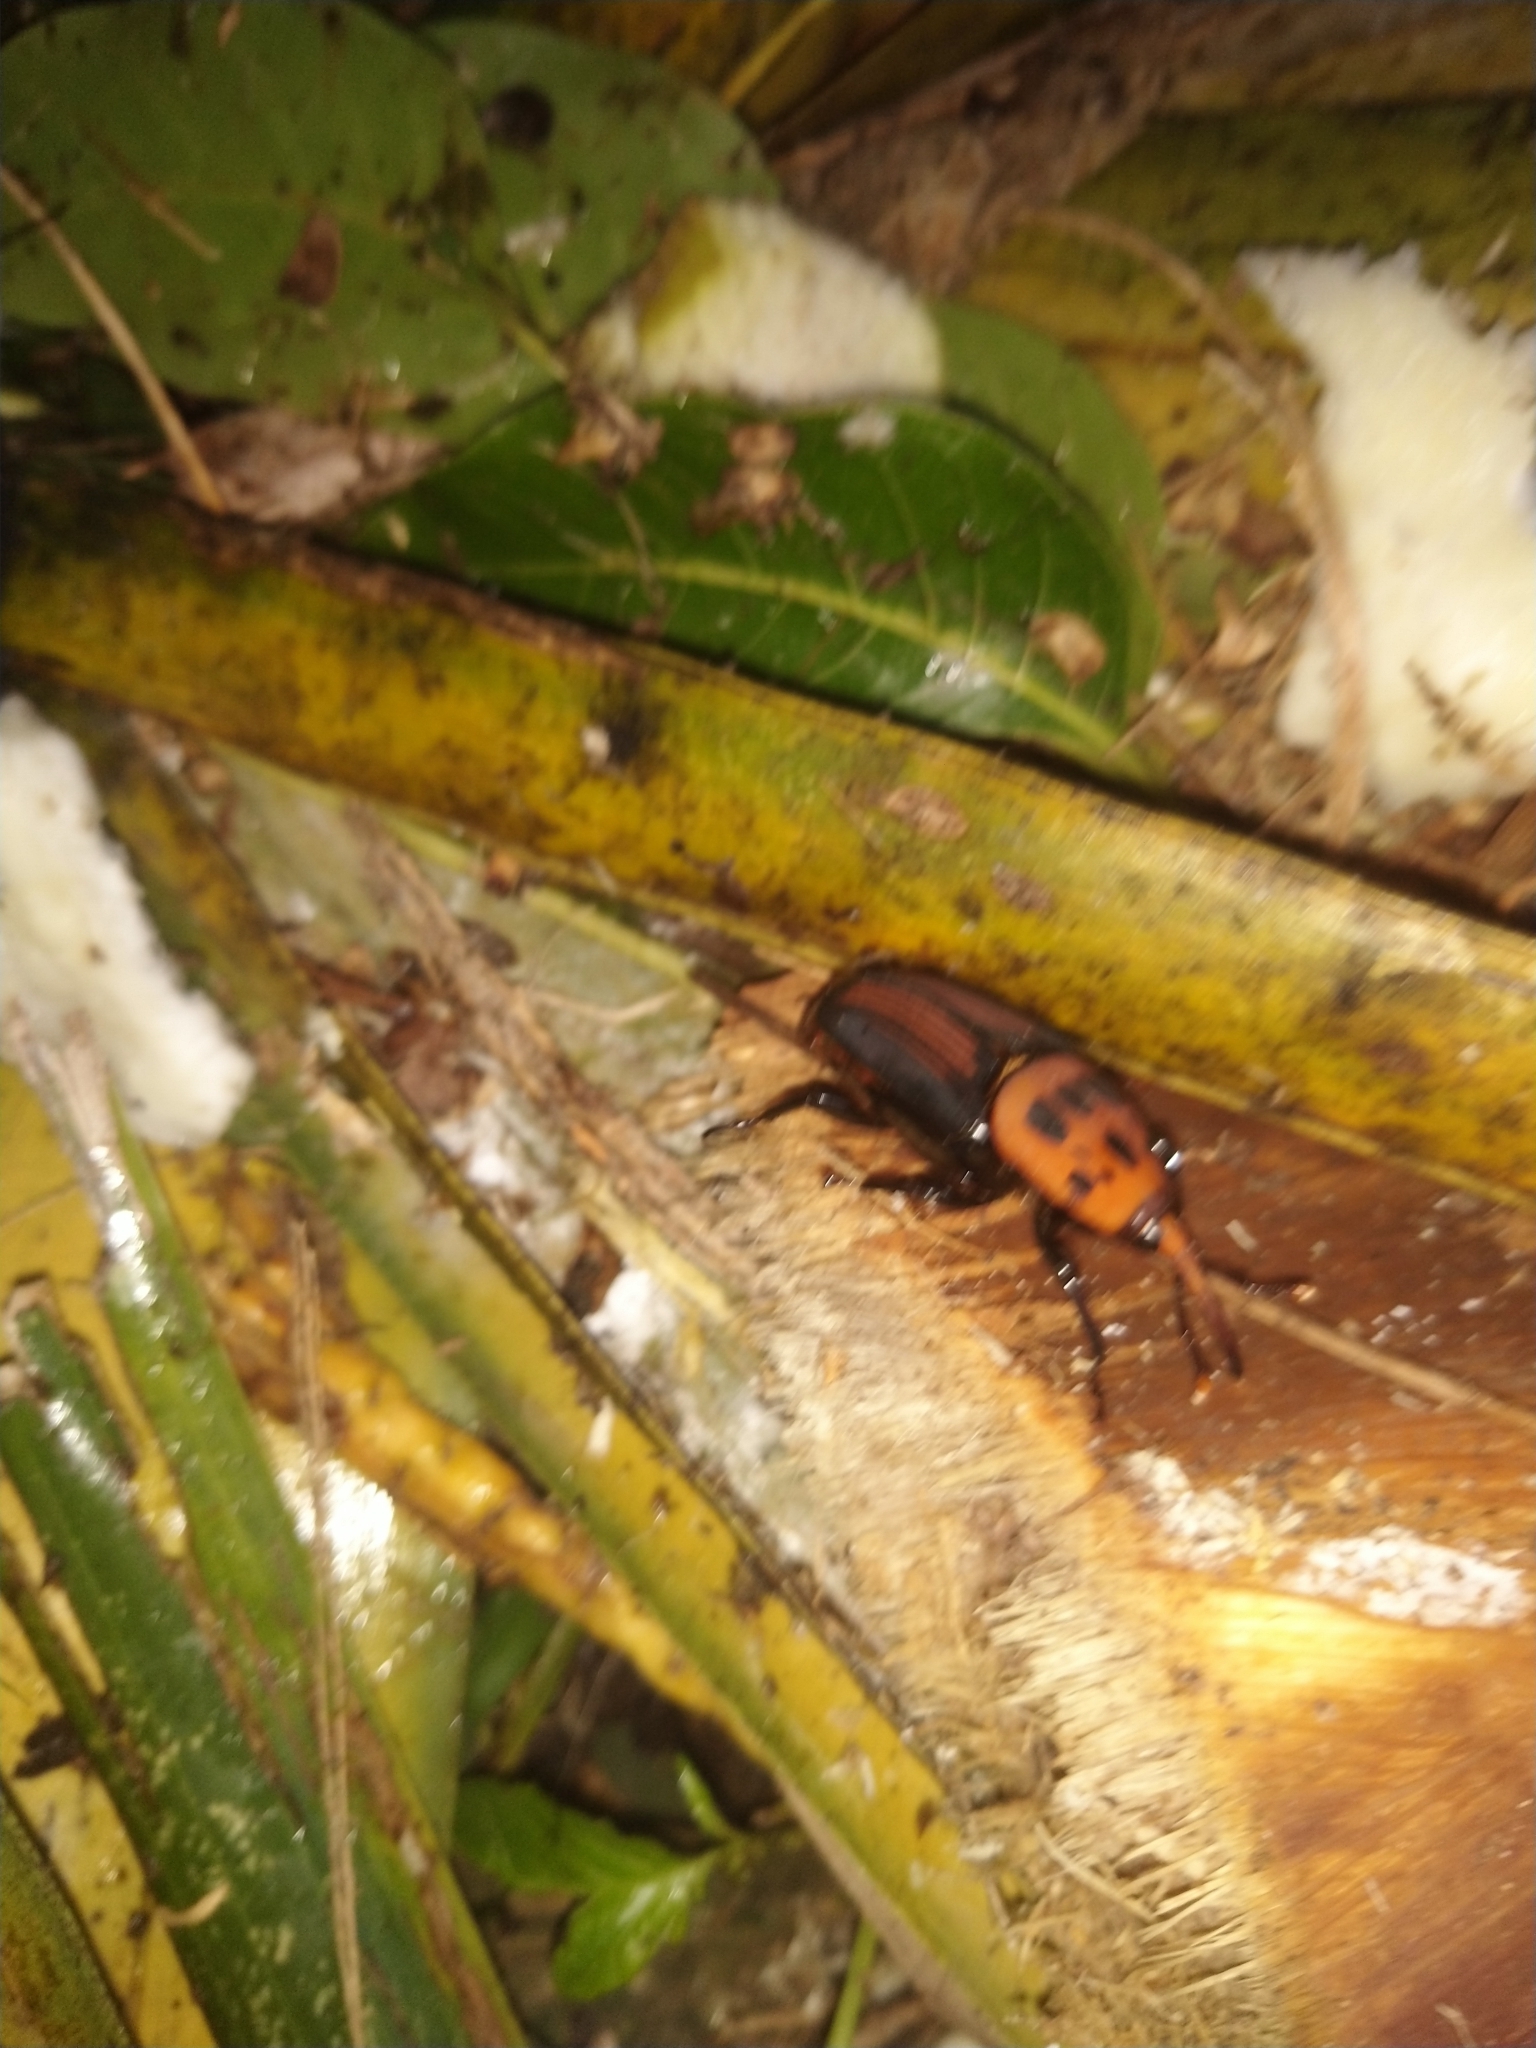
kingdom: Animalia
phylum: Arthropoda
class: Insecta
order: Coleoptera
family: Dryophthoridae
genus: Rhynchophorus
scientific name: Rhynchophorus ferrugineus
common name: Red palm weevil
